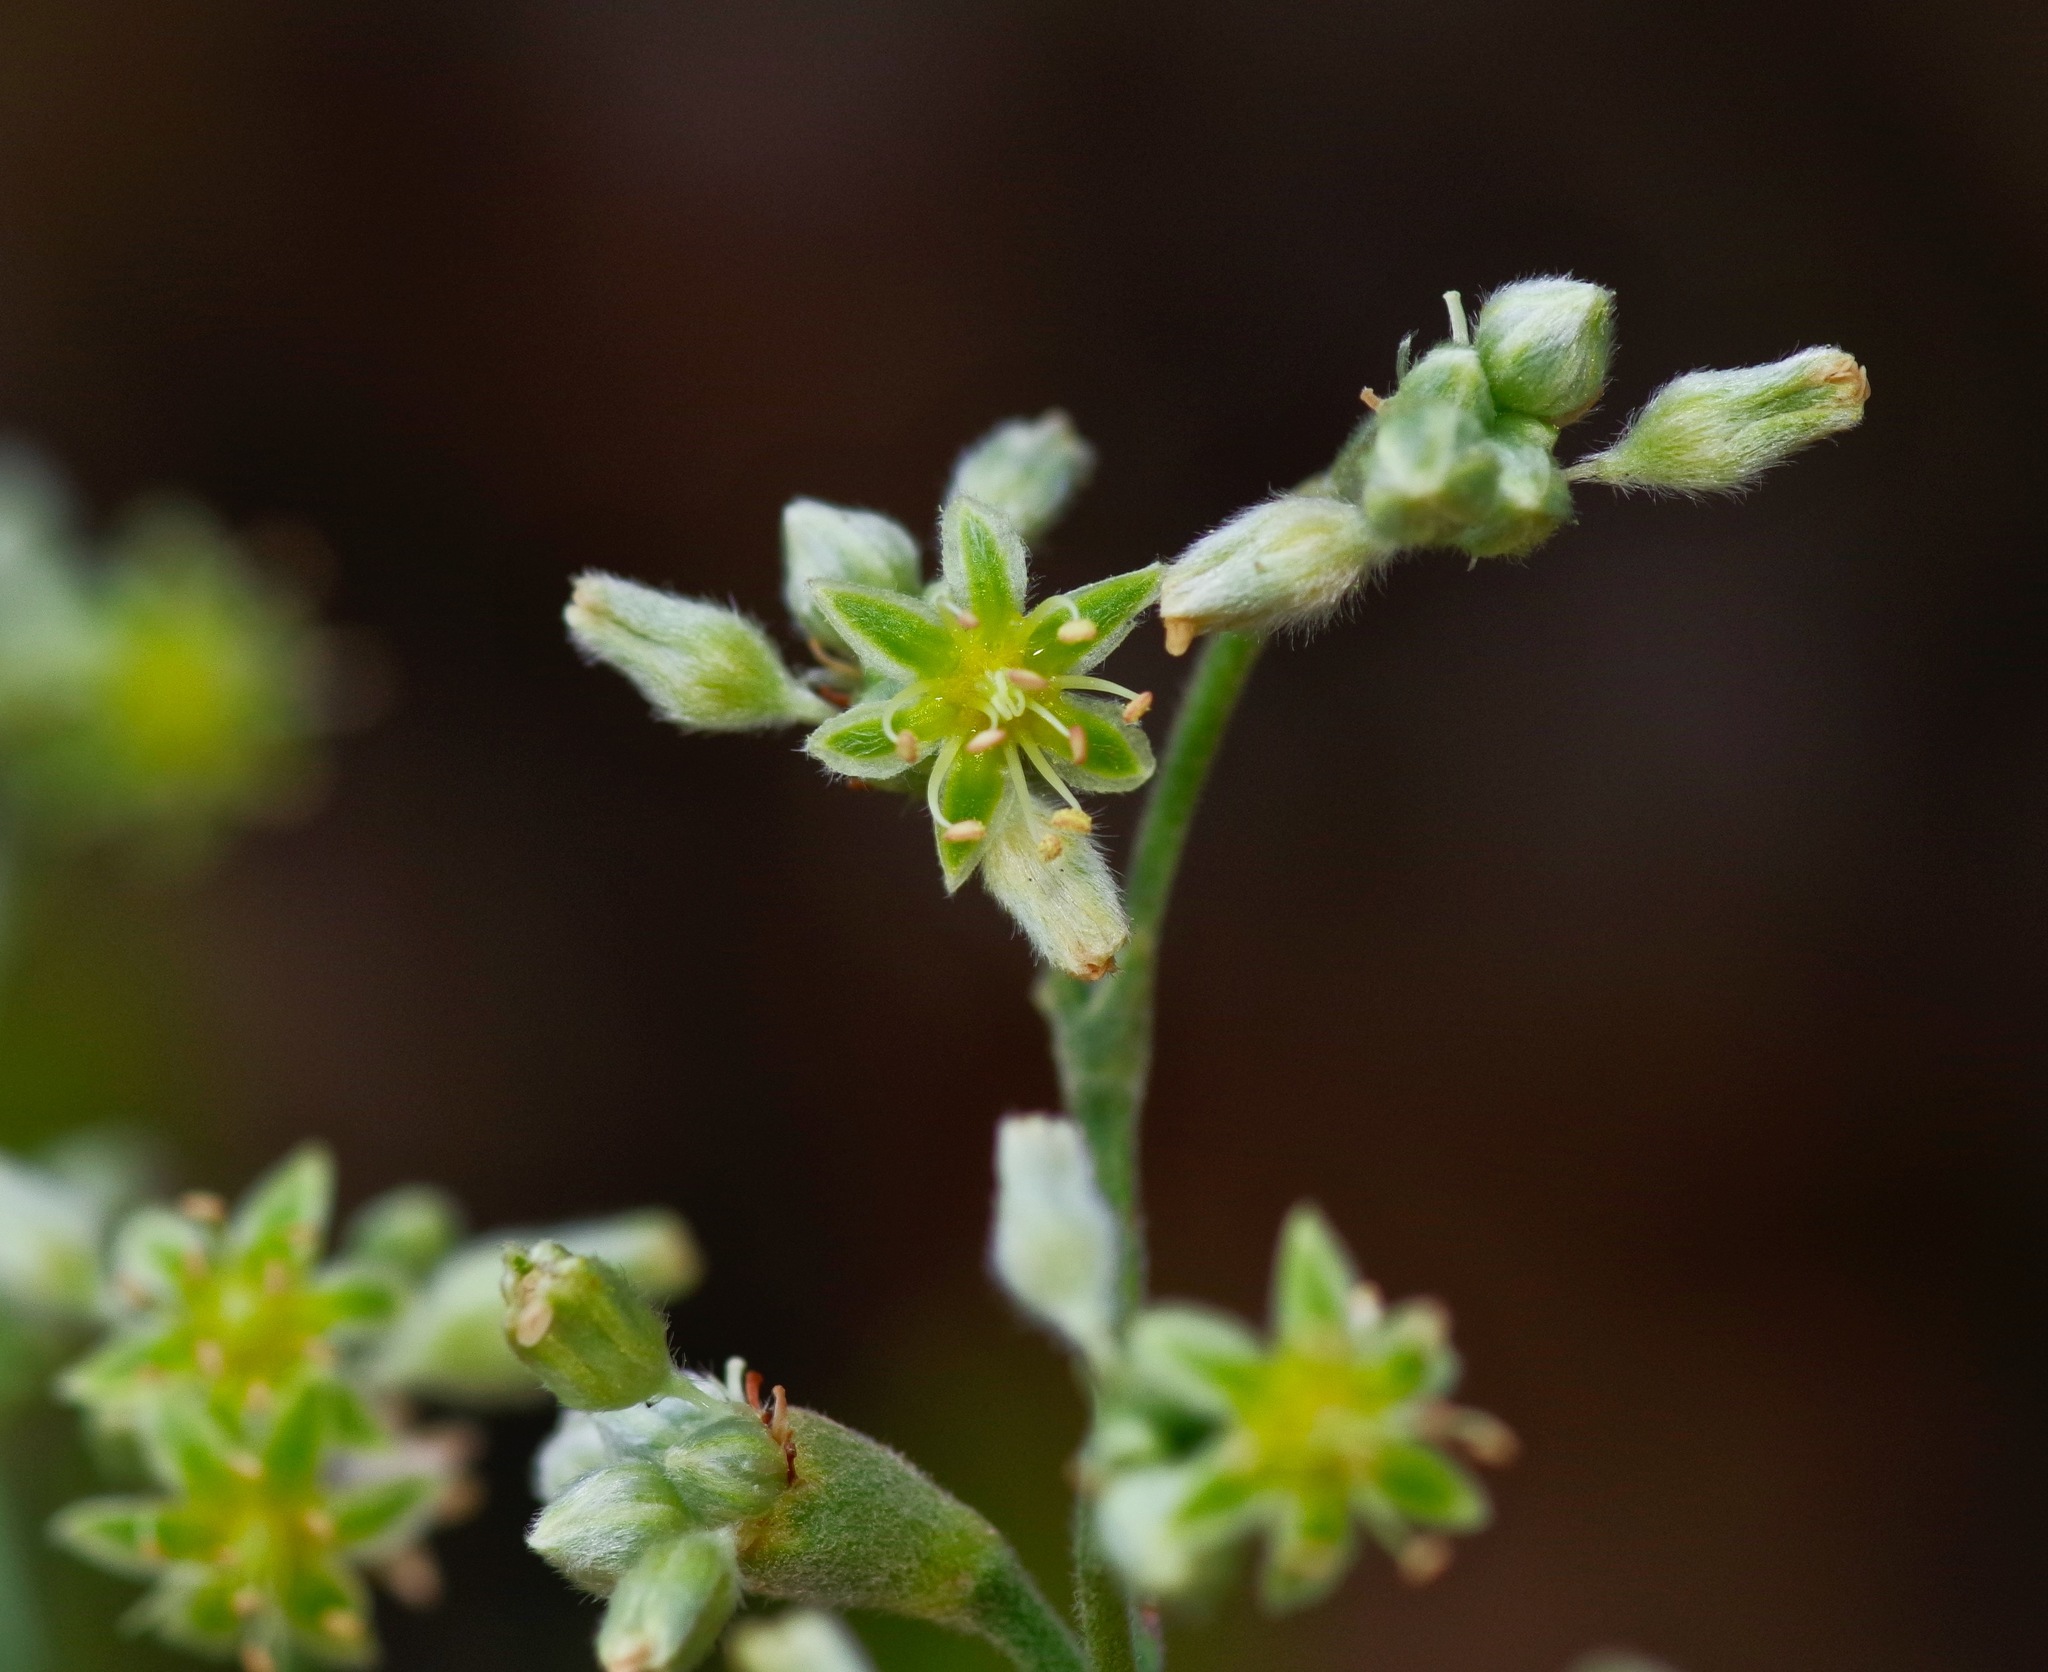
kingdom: Plantae
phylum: Tracheophyta
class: Magnoliopsida
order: Caryophyllales
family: Polygonaceae
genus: Eriogonum
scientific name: Eriogonum longifolium
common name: Longleaf wild buckwheat
